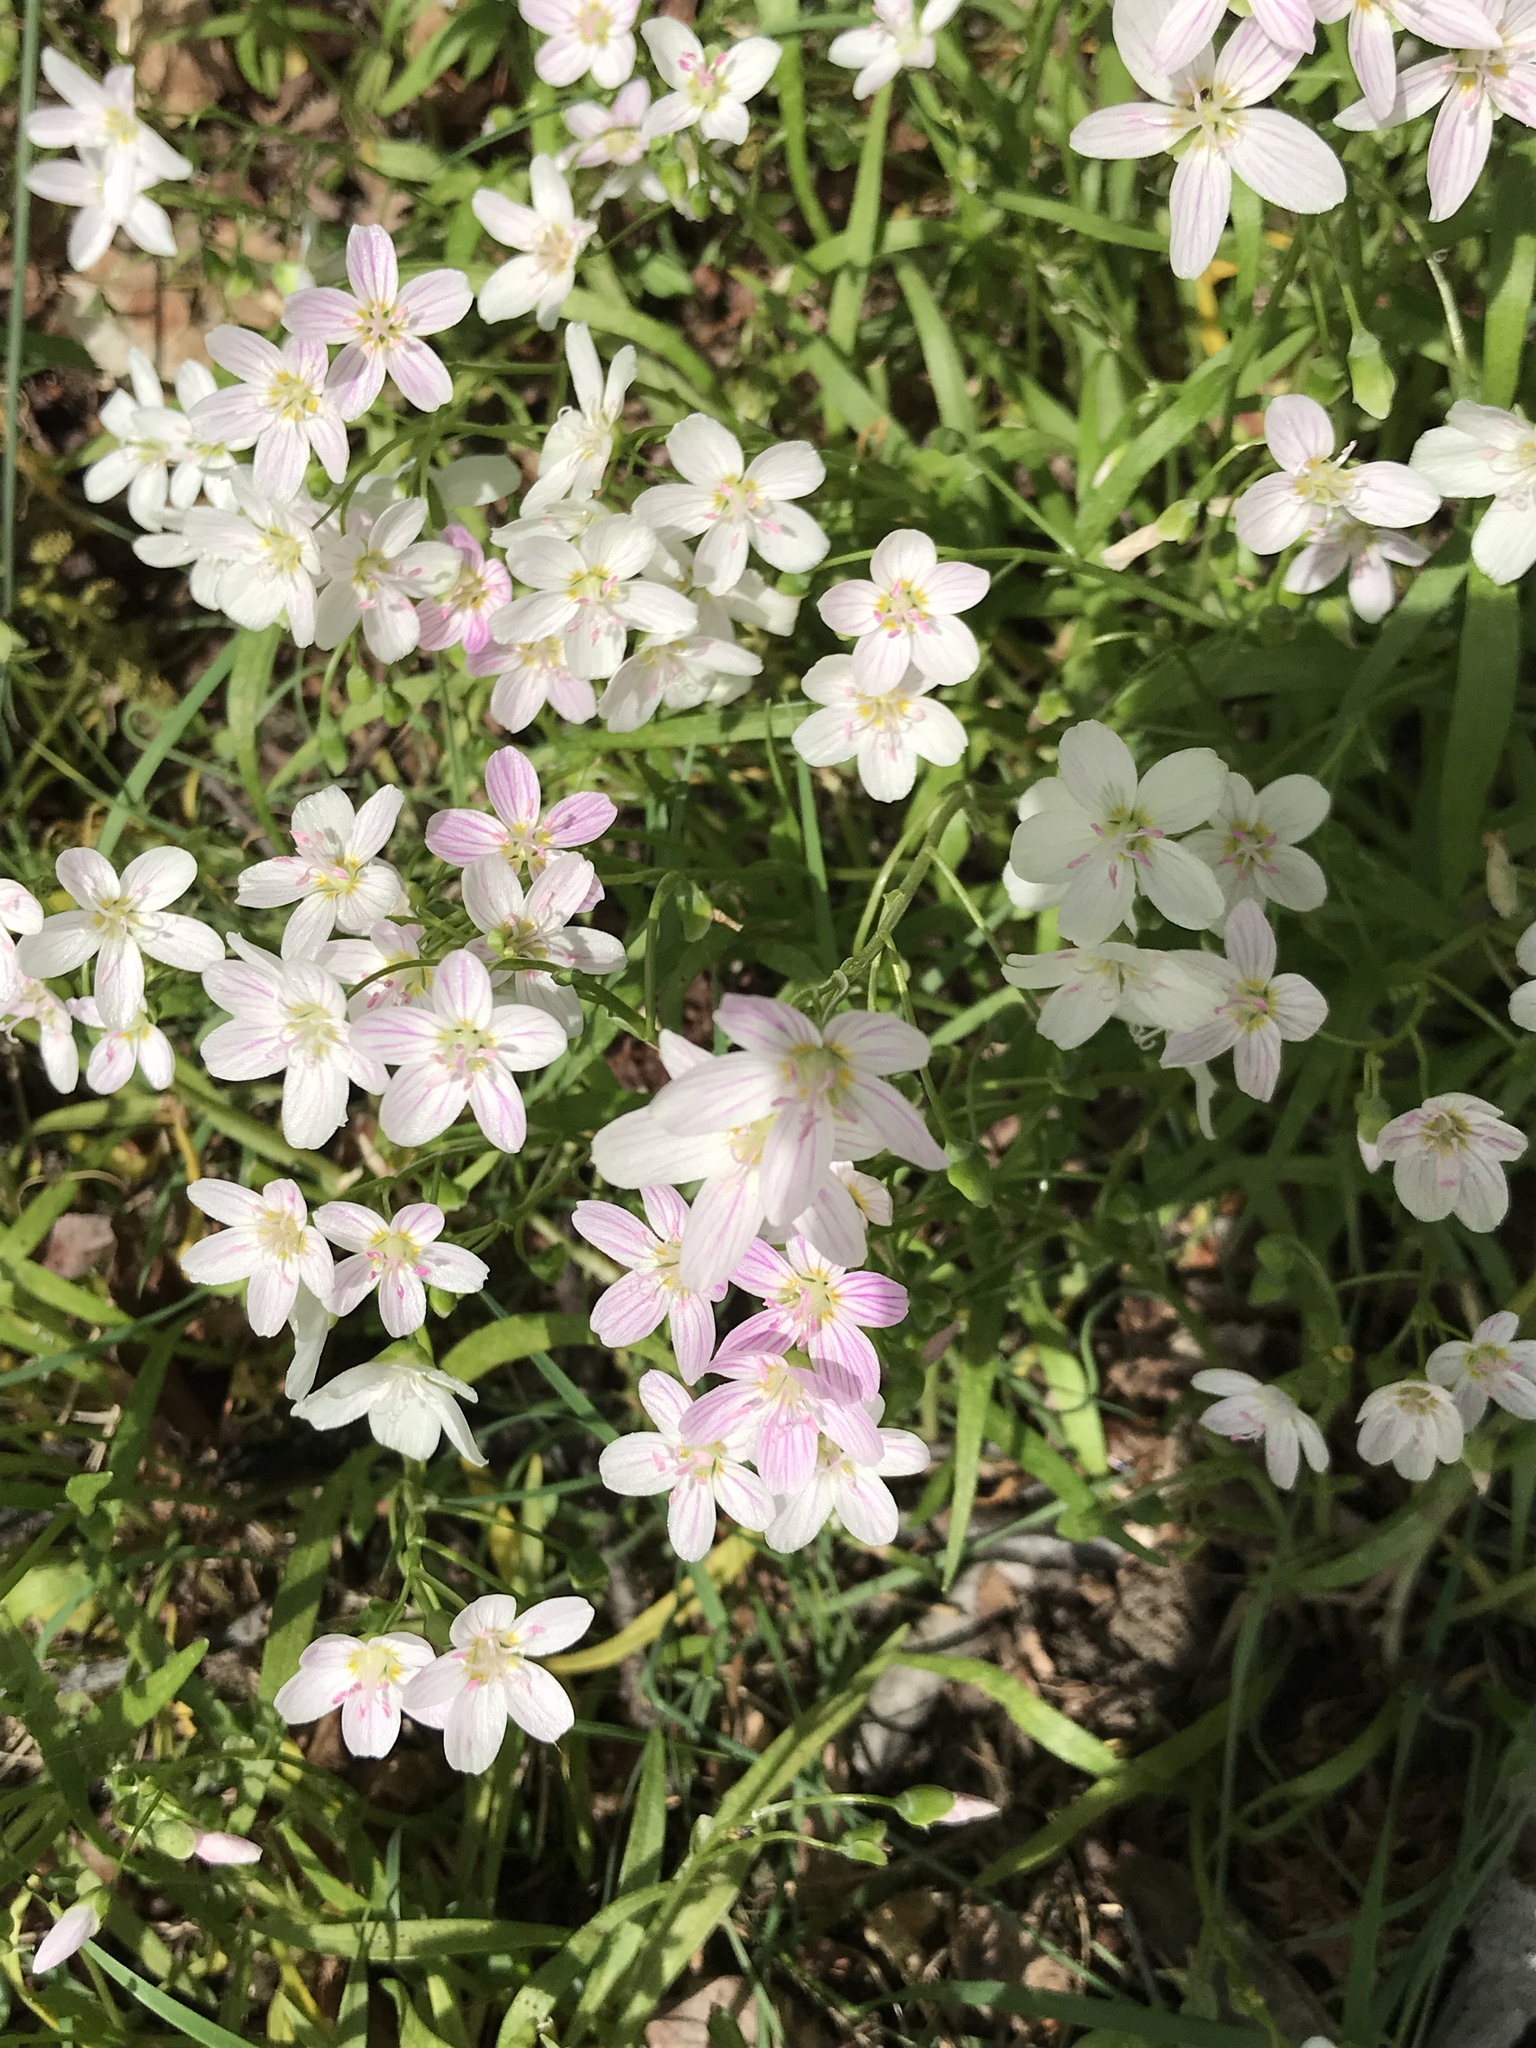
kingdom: Plantae
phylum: Tracheophyta
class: Magnoliopsida
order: Caryophyllales
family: Montiaceae
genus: Claytonia
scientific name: Claytonia virginica
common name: Virginia springbeauty
